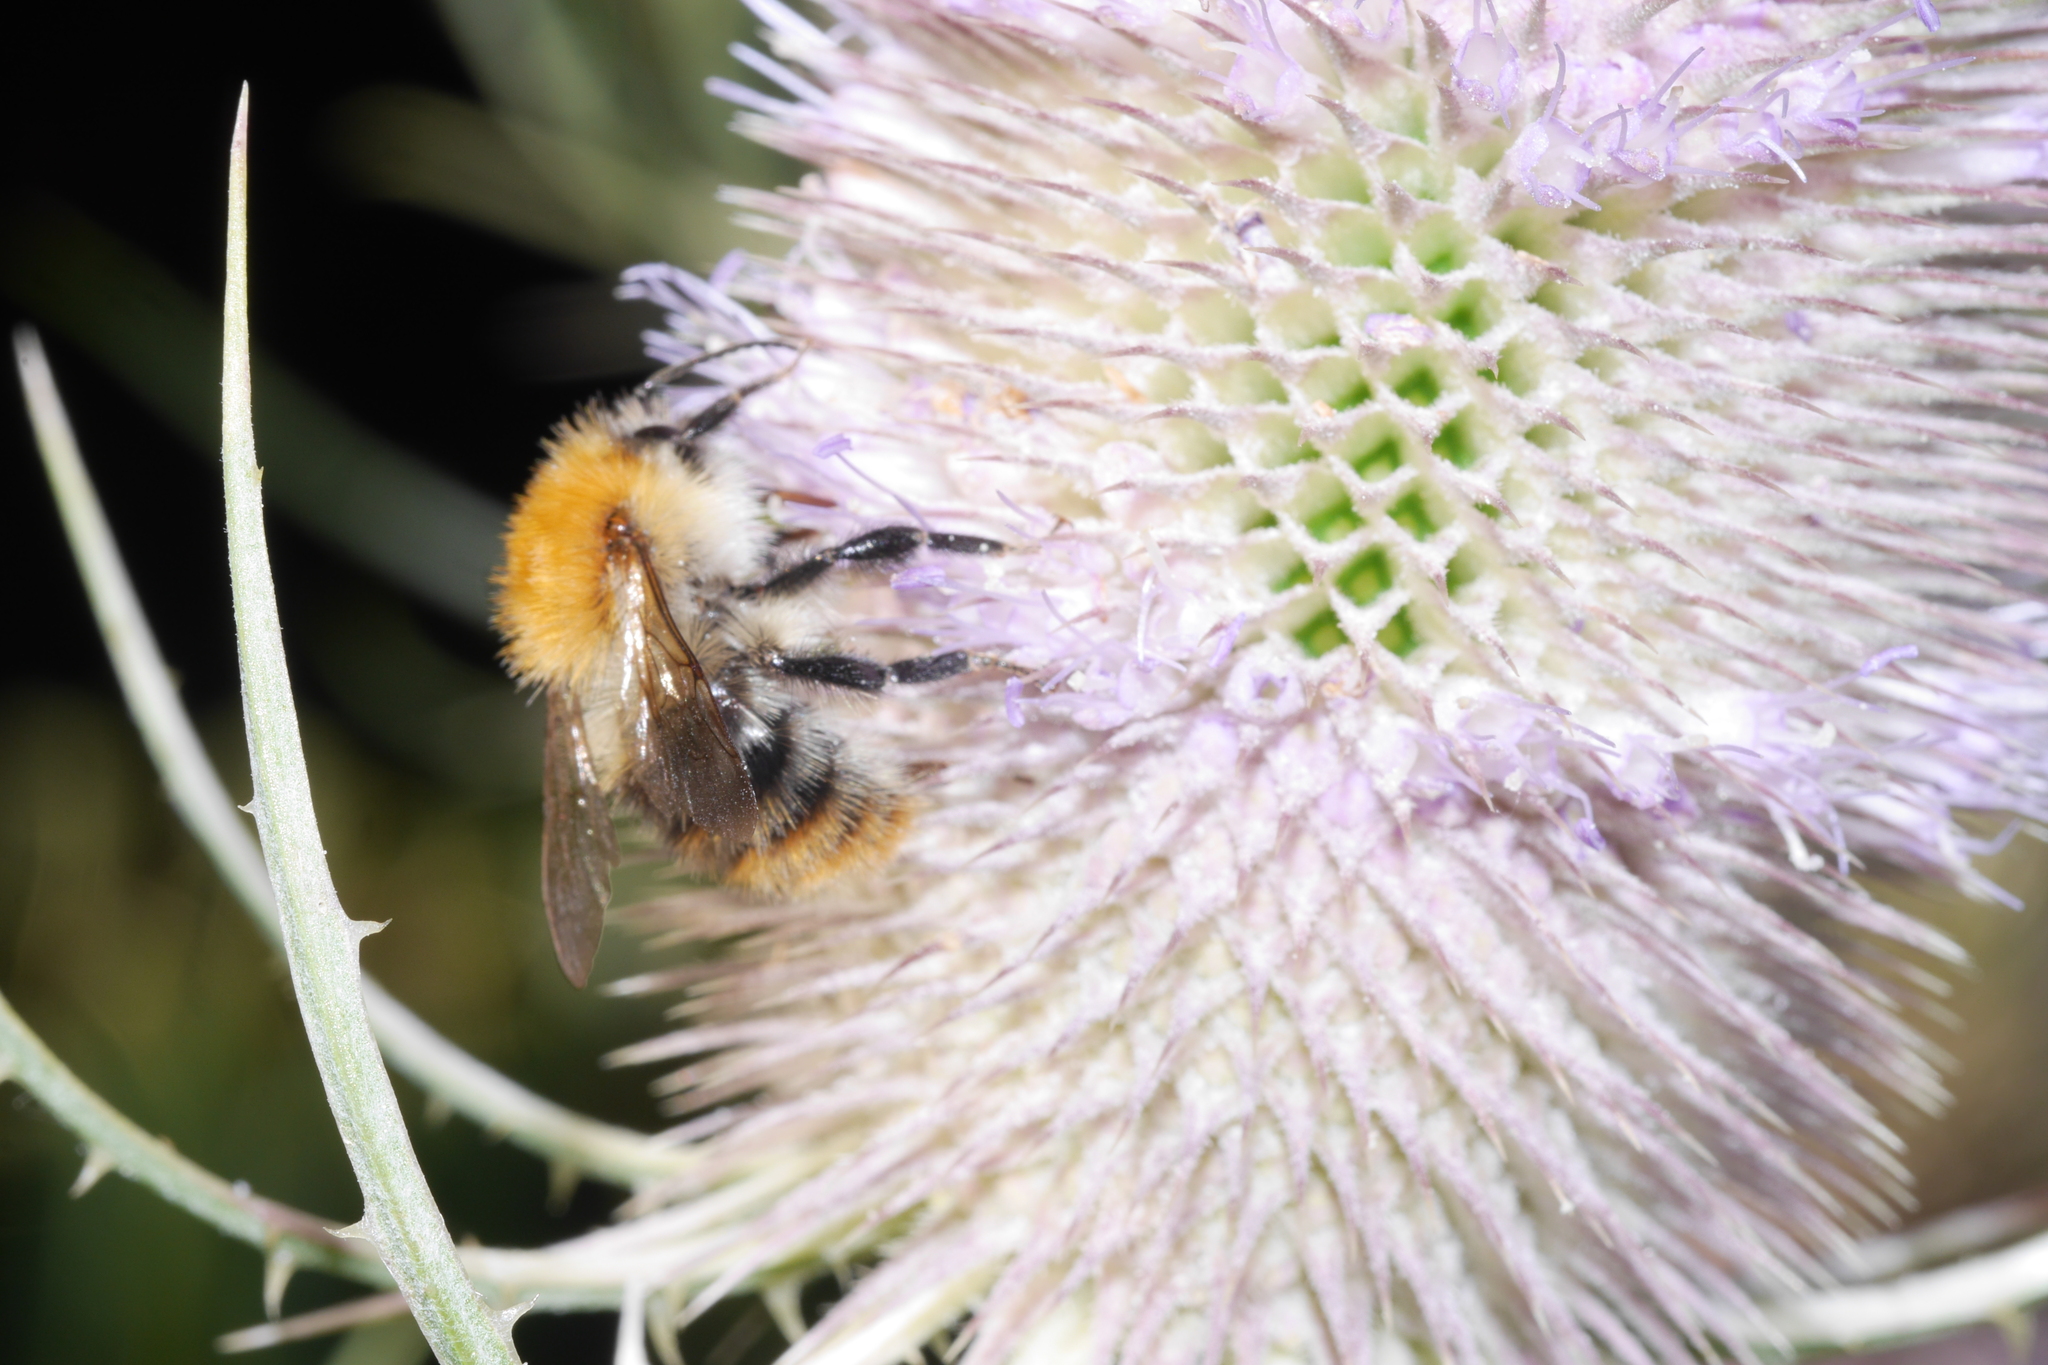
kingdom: Animalia
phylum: Arthropoda
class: Insecta
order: Hymenoptera
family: Apidae
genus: Bombus
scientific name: Bombus pascuorum
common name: Common carder bee
